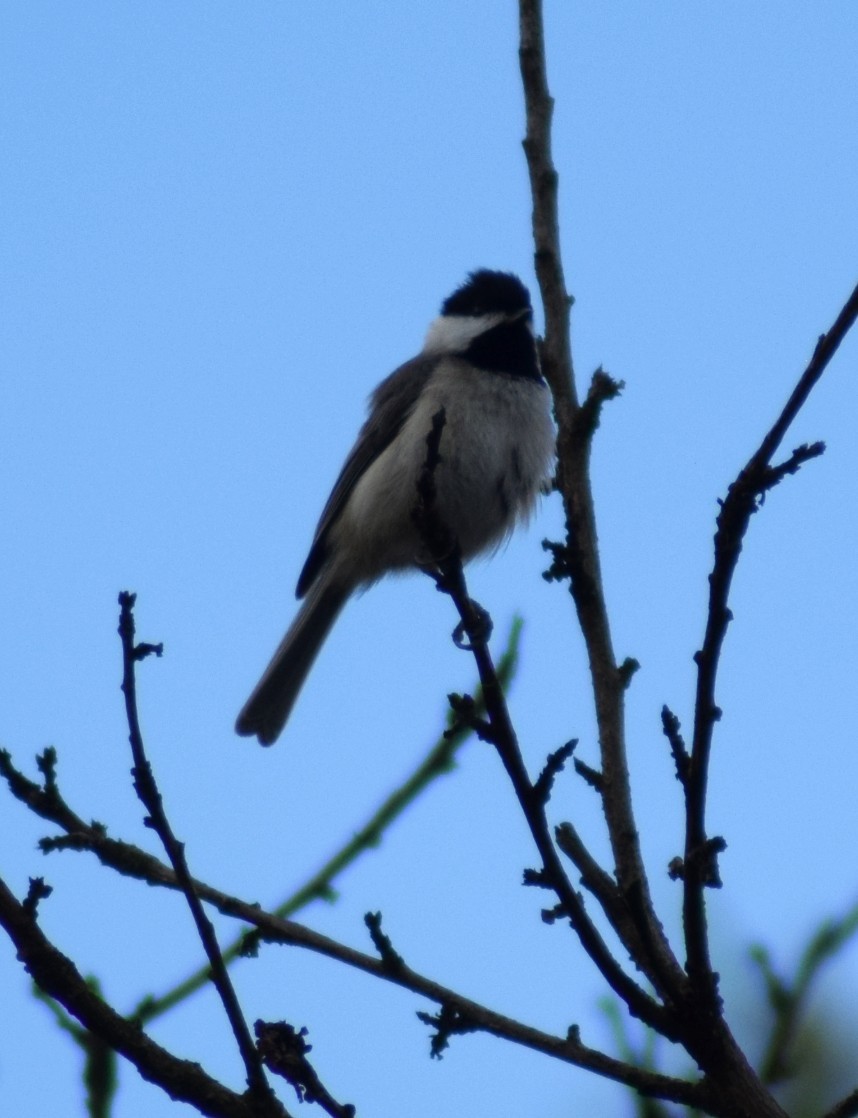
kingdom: Animalia
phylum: Chordata
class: Aves
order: Passeriformes
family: Paridae
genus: Poecile
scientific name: Poecile carolinensis
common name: Carolina chickadee
